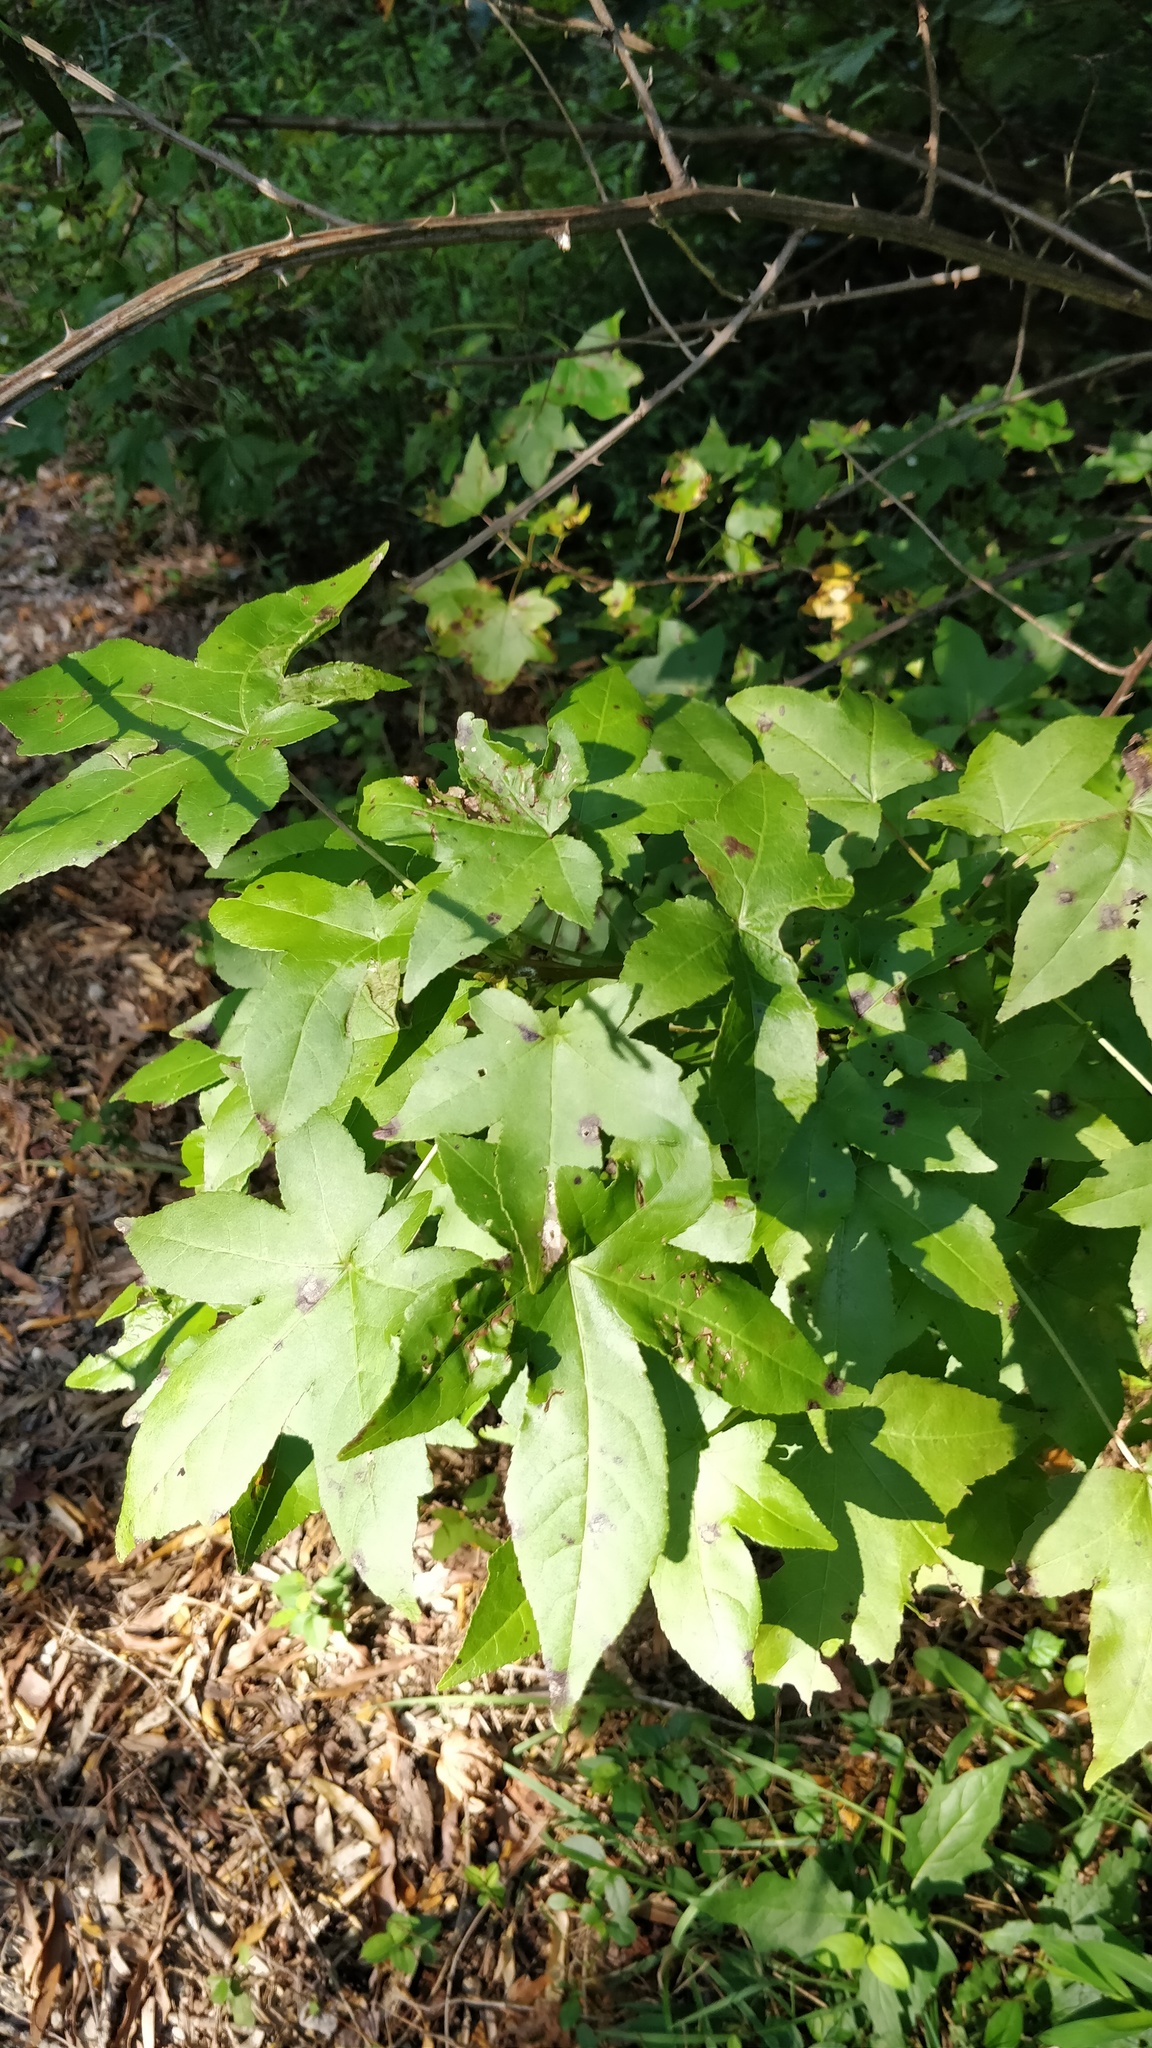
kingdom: Plantae
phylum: Tracheophyta
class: Magnoliopsida
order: Saxifragales
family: Altingiaceae
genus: Liquidambar
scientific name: Liquidambar styraciflua
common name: Sweet gum
